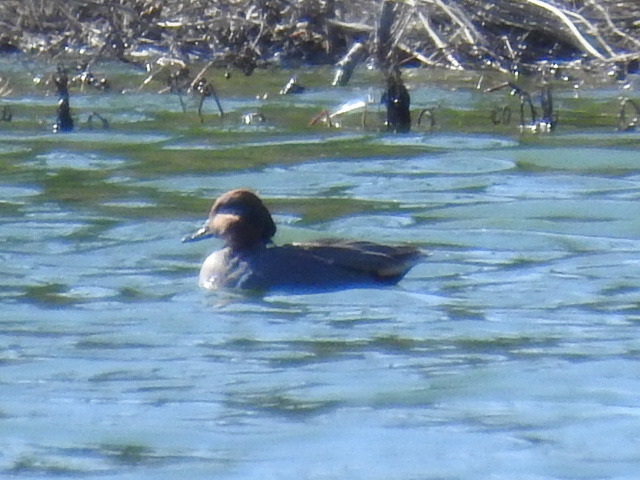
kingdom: Animalia
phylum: Chordata
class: Aves
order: Anseriformes
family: Anatidae
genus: Anas
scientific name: Anas crecca
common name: Eurasian teal
